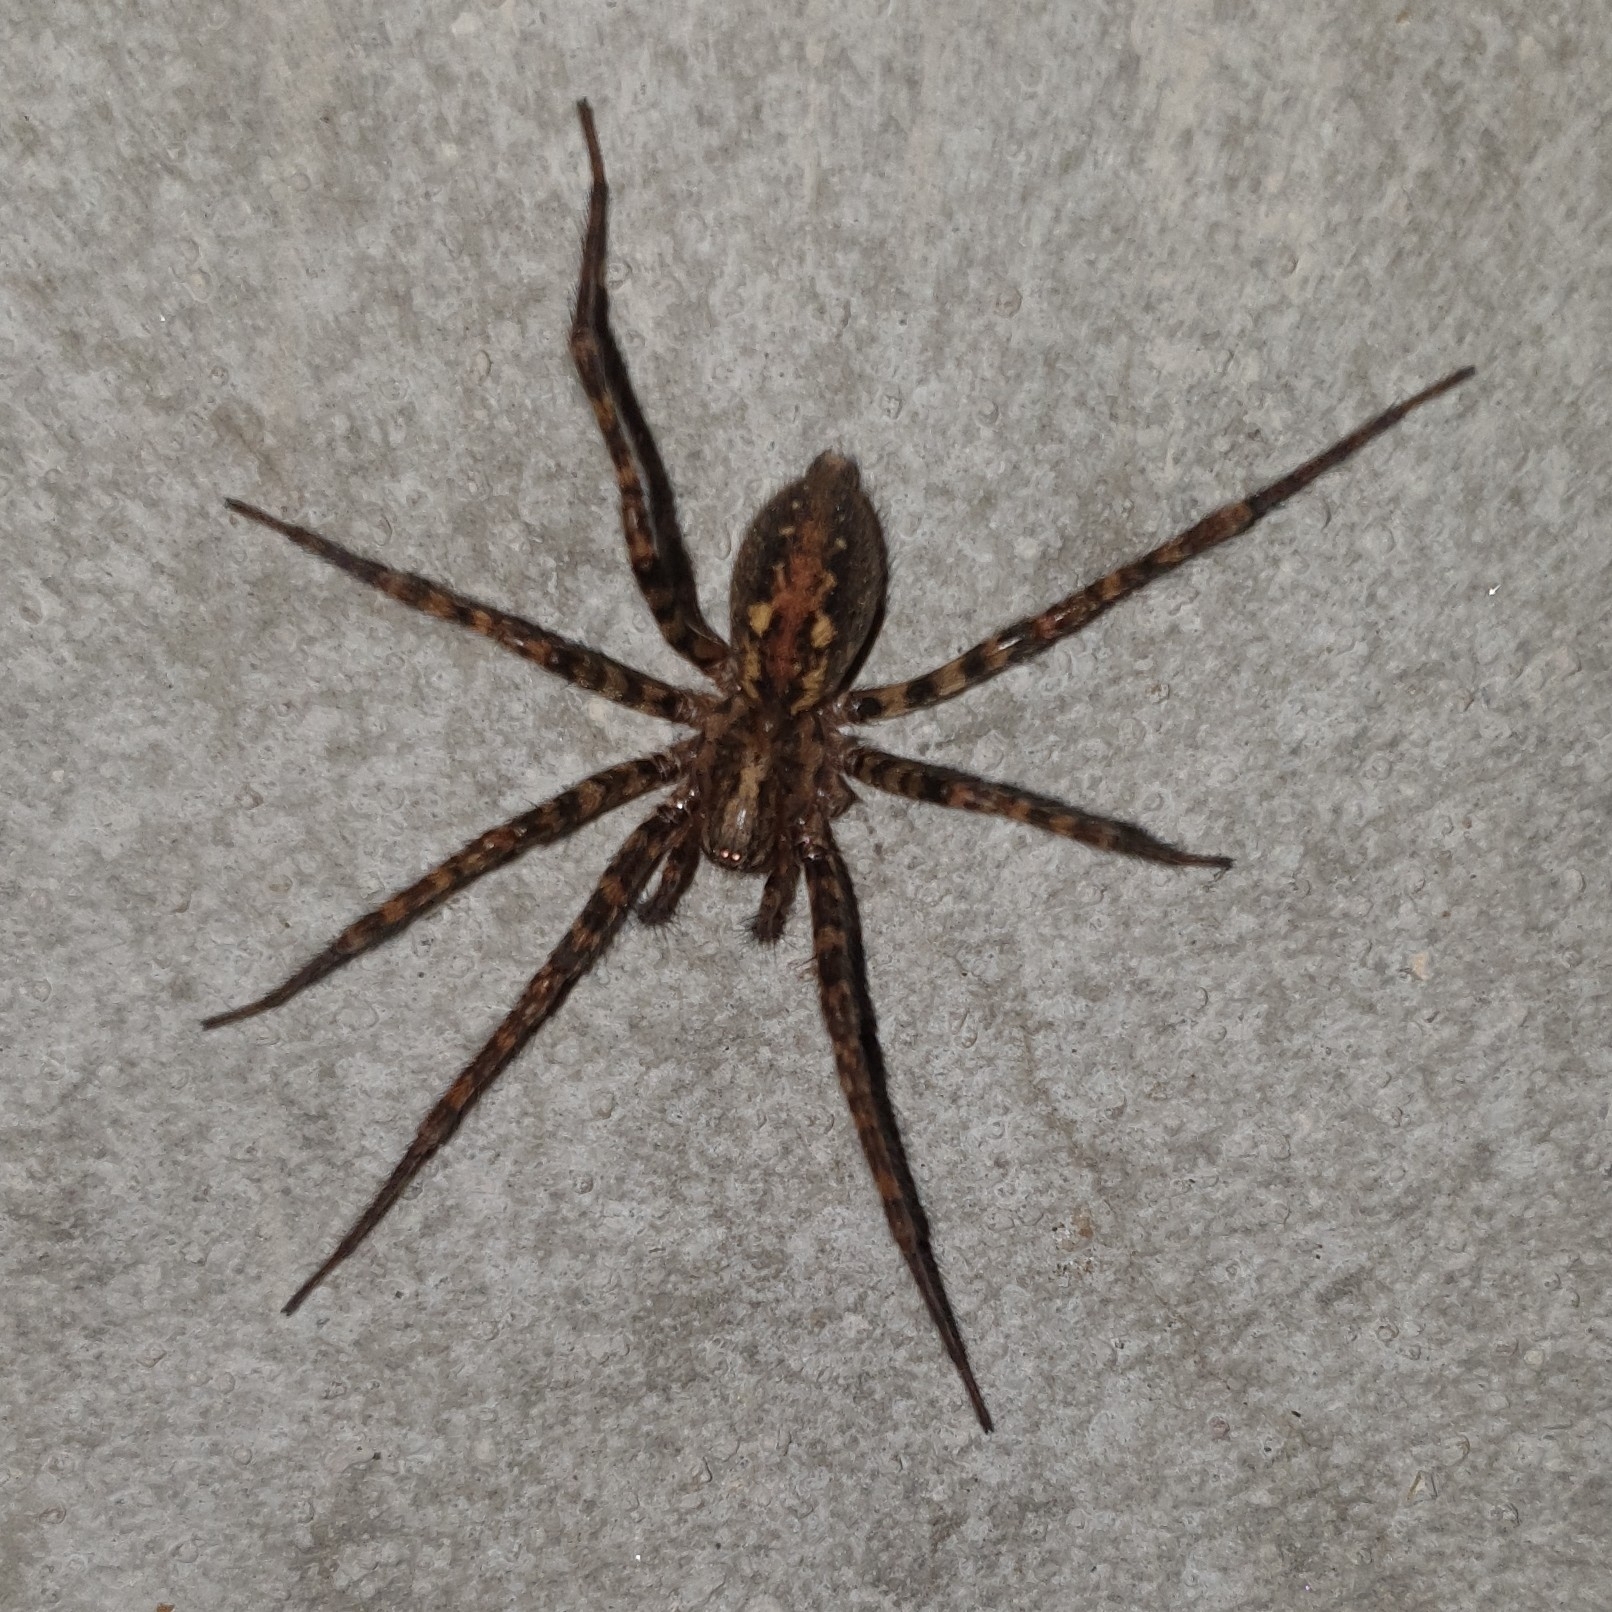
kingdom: Animalia
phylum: Arthropoda
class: Arachnida
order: Araneae
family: Agelenidae
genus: Tegenaria
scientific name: Tegenaria ferruginea
